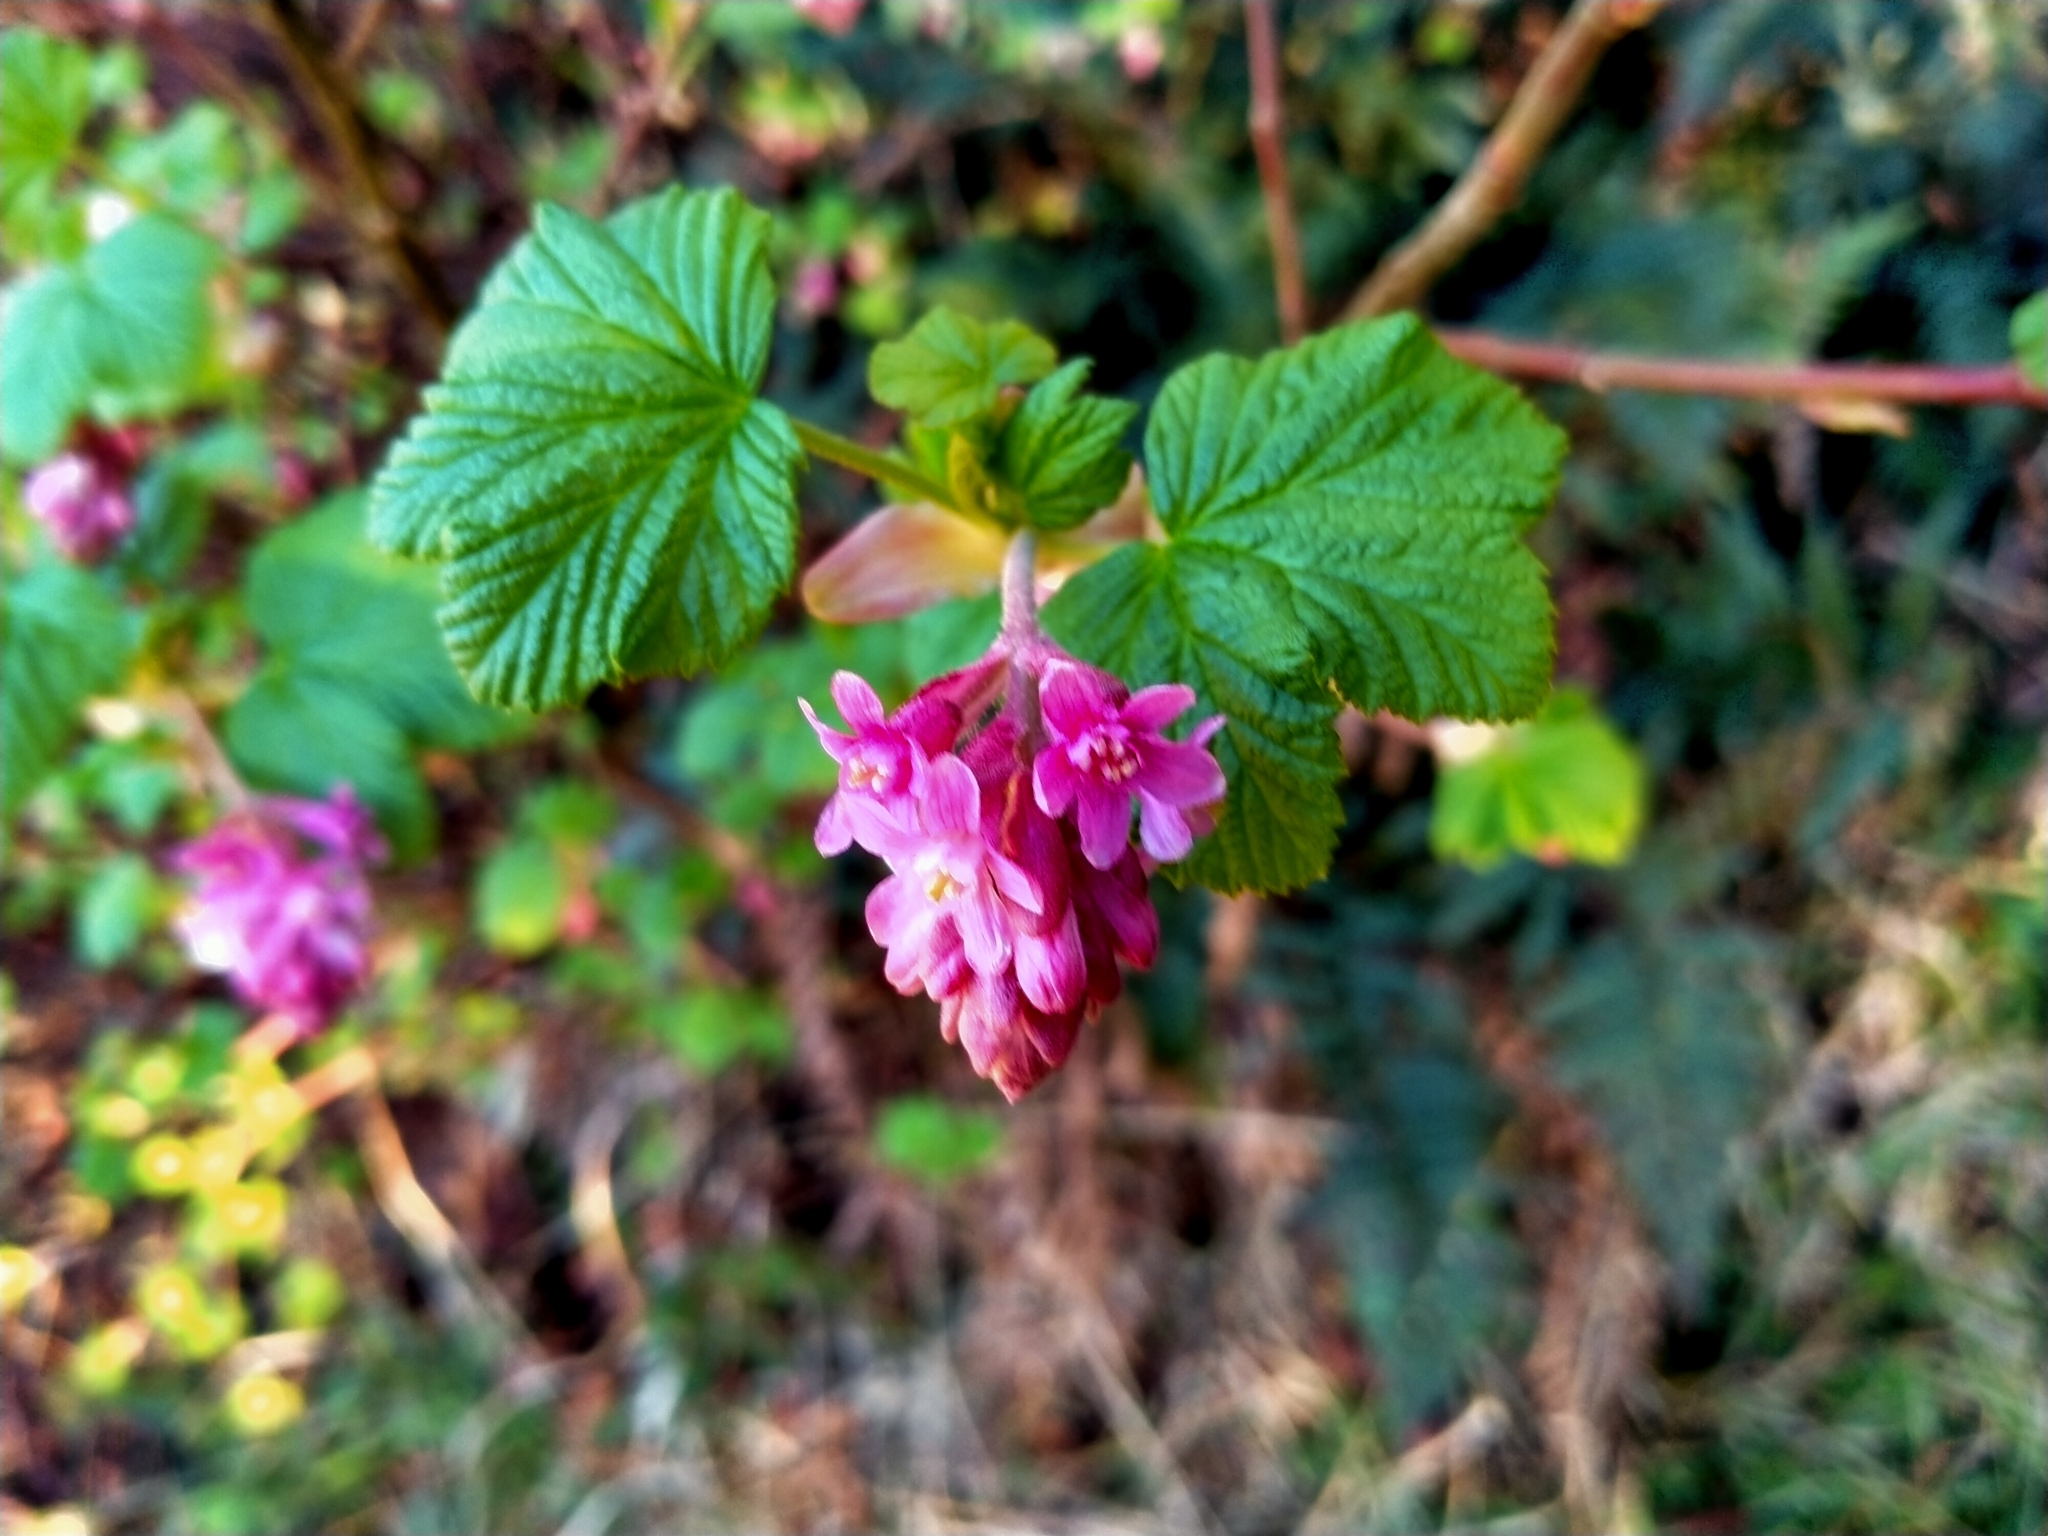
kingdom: Plantae
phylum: Tracheophyta
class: Magnoliopsida
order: Saxifragales
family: Grossulariaceae
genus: Ribes
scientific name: Ribes sanguineum
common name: Flowering currant
